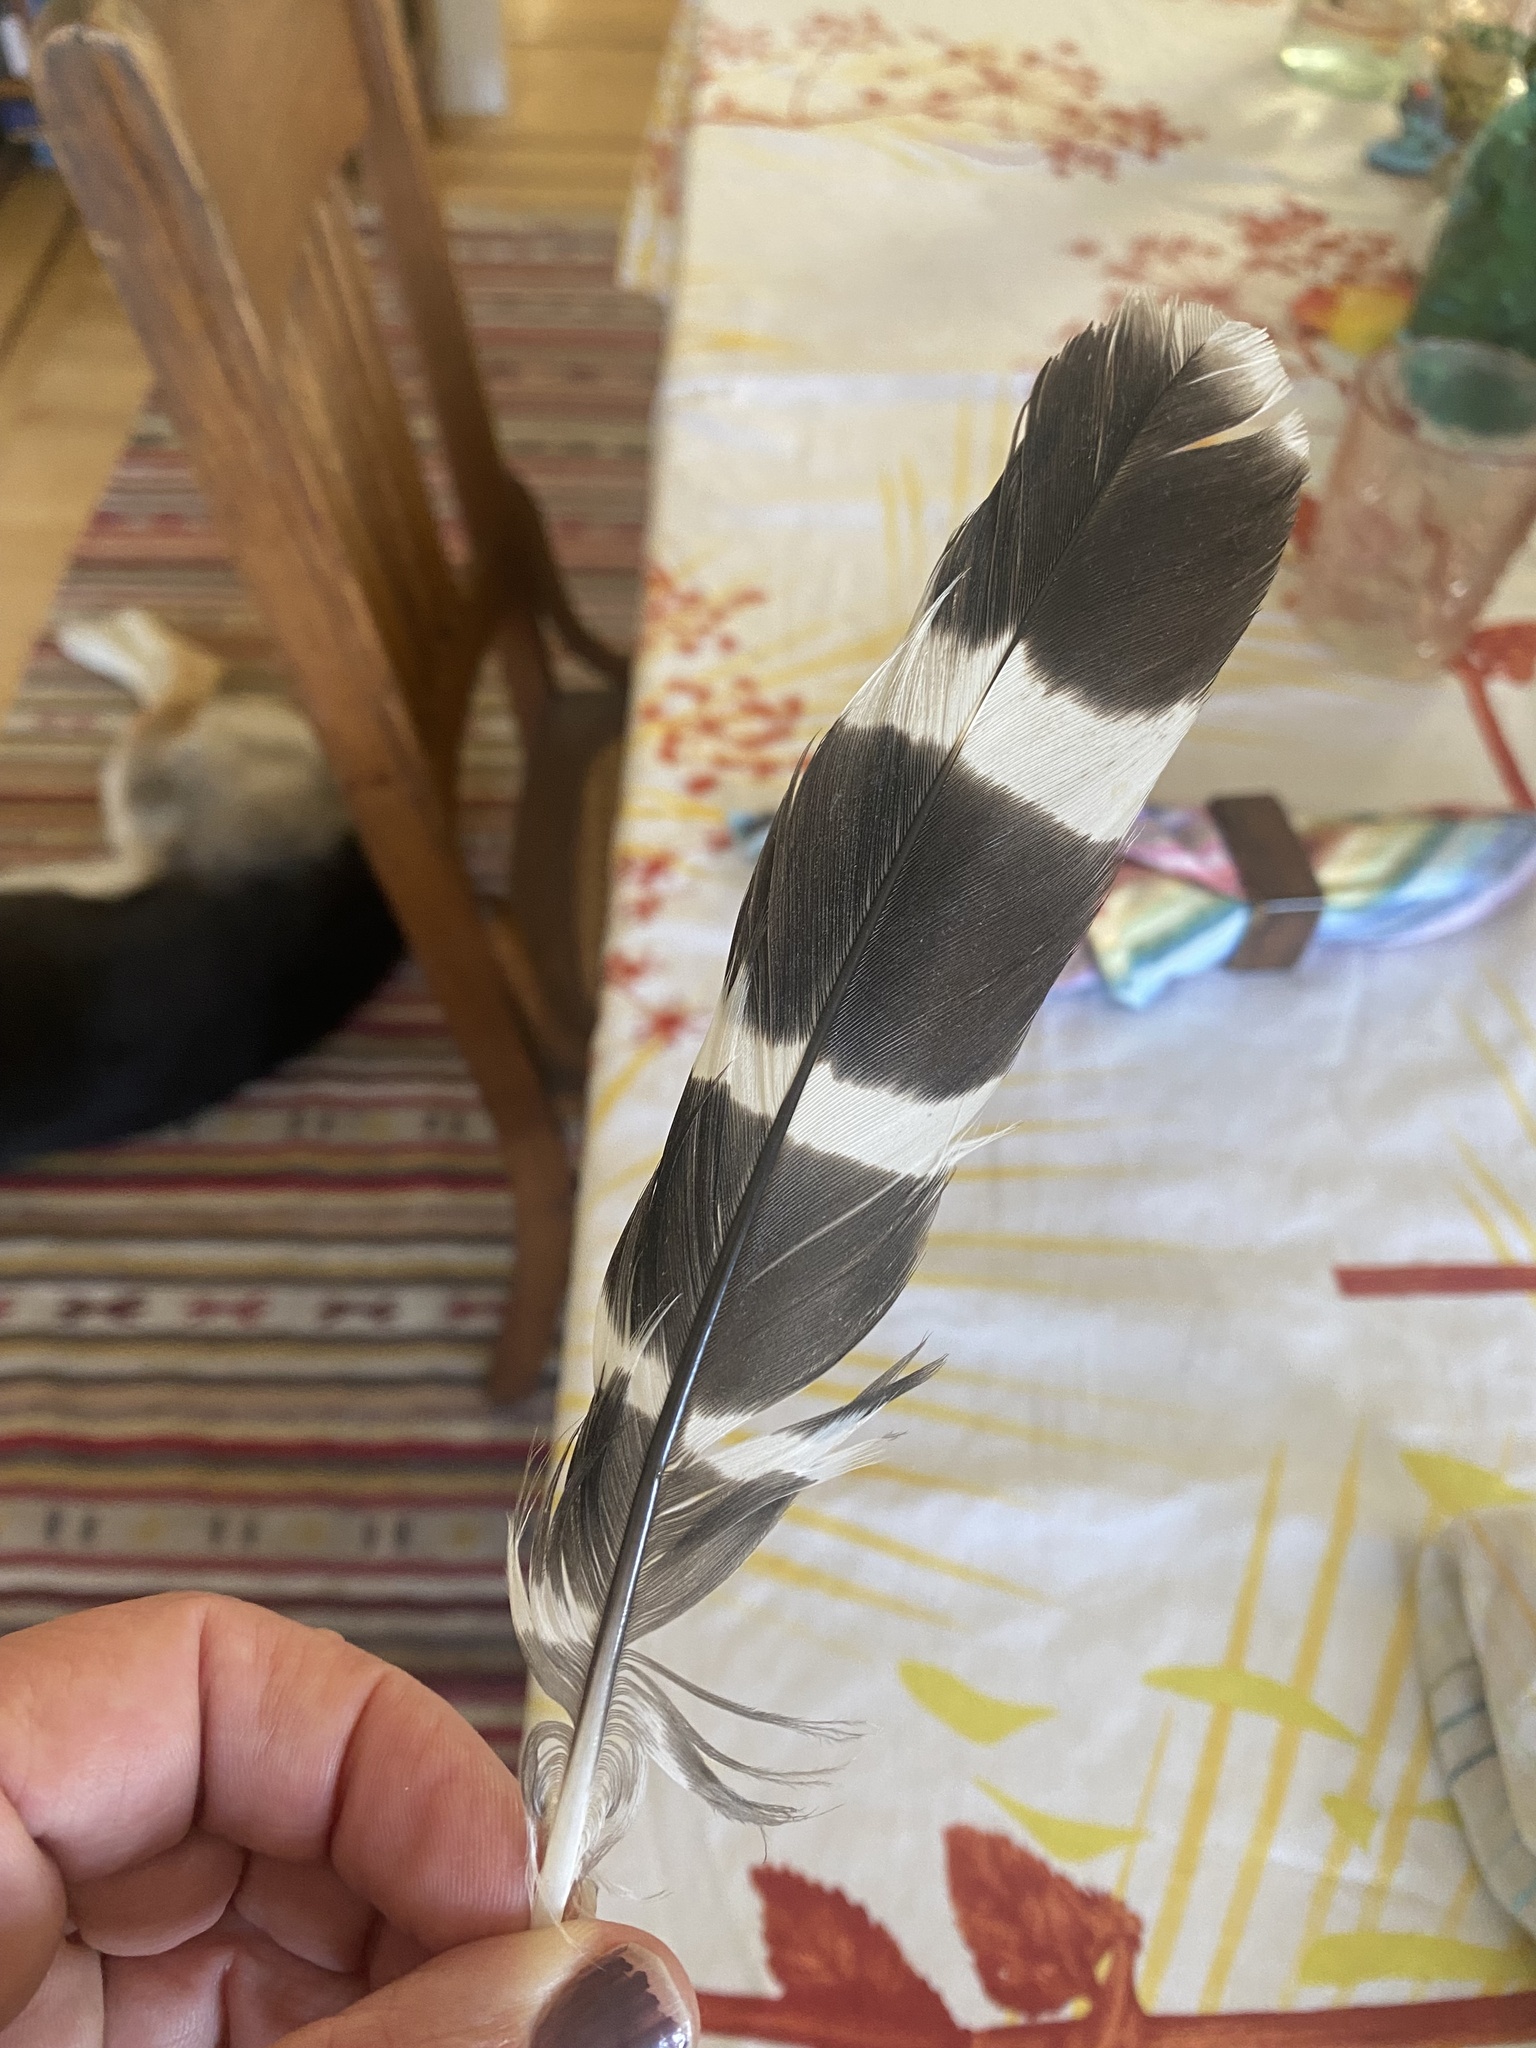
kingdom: Animalia
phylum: Chordata
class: Aves
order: Accipitriformes
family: Accipitridae
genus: Buteo
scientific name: Buteo lineatus
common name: Red-shouldered hawk
